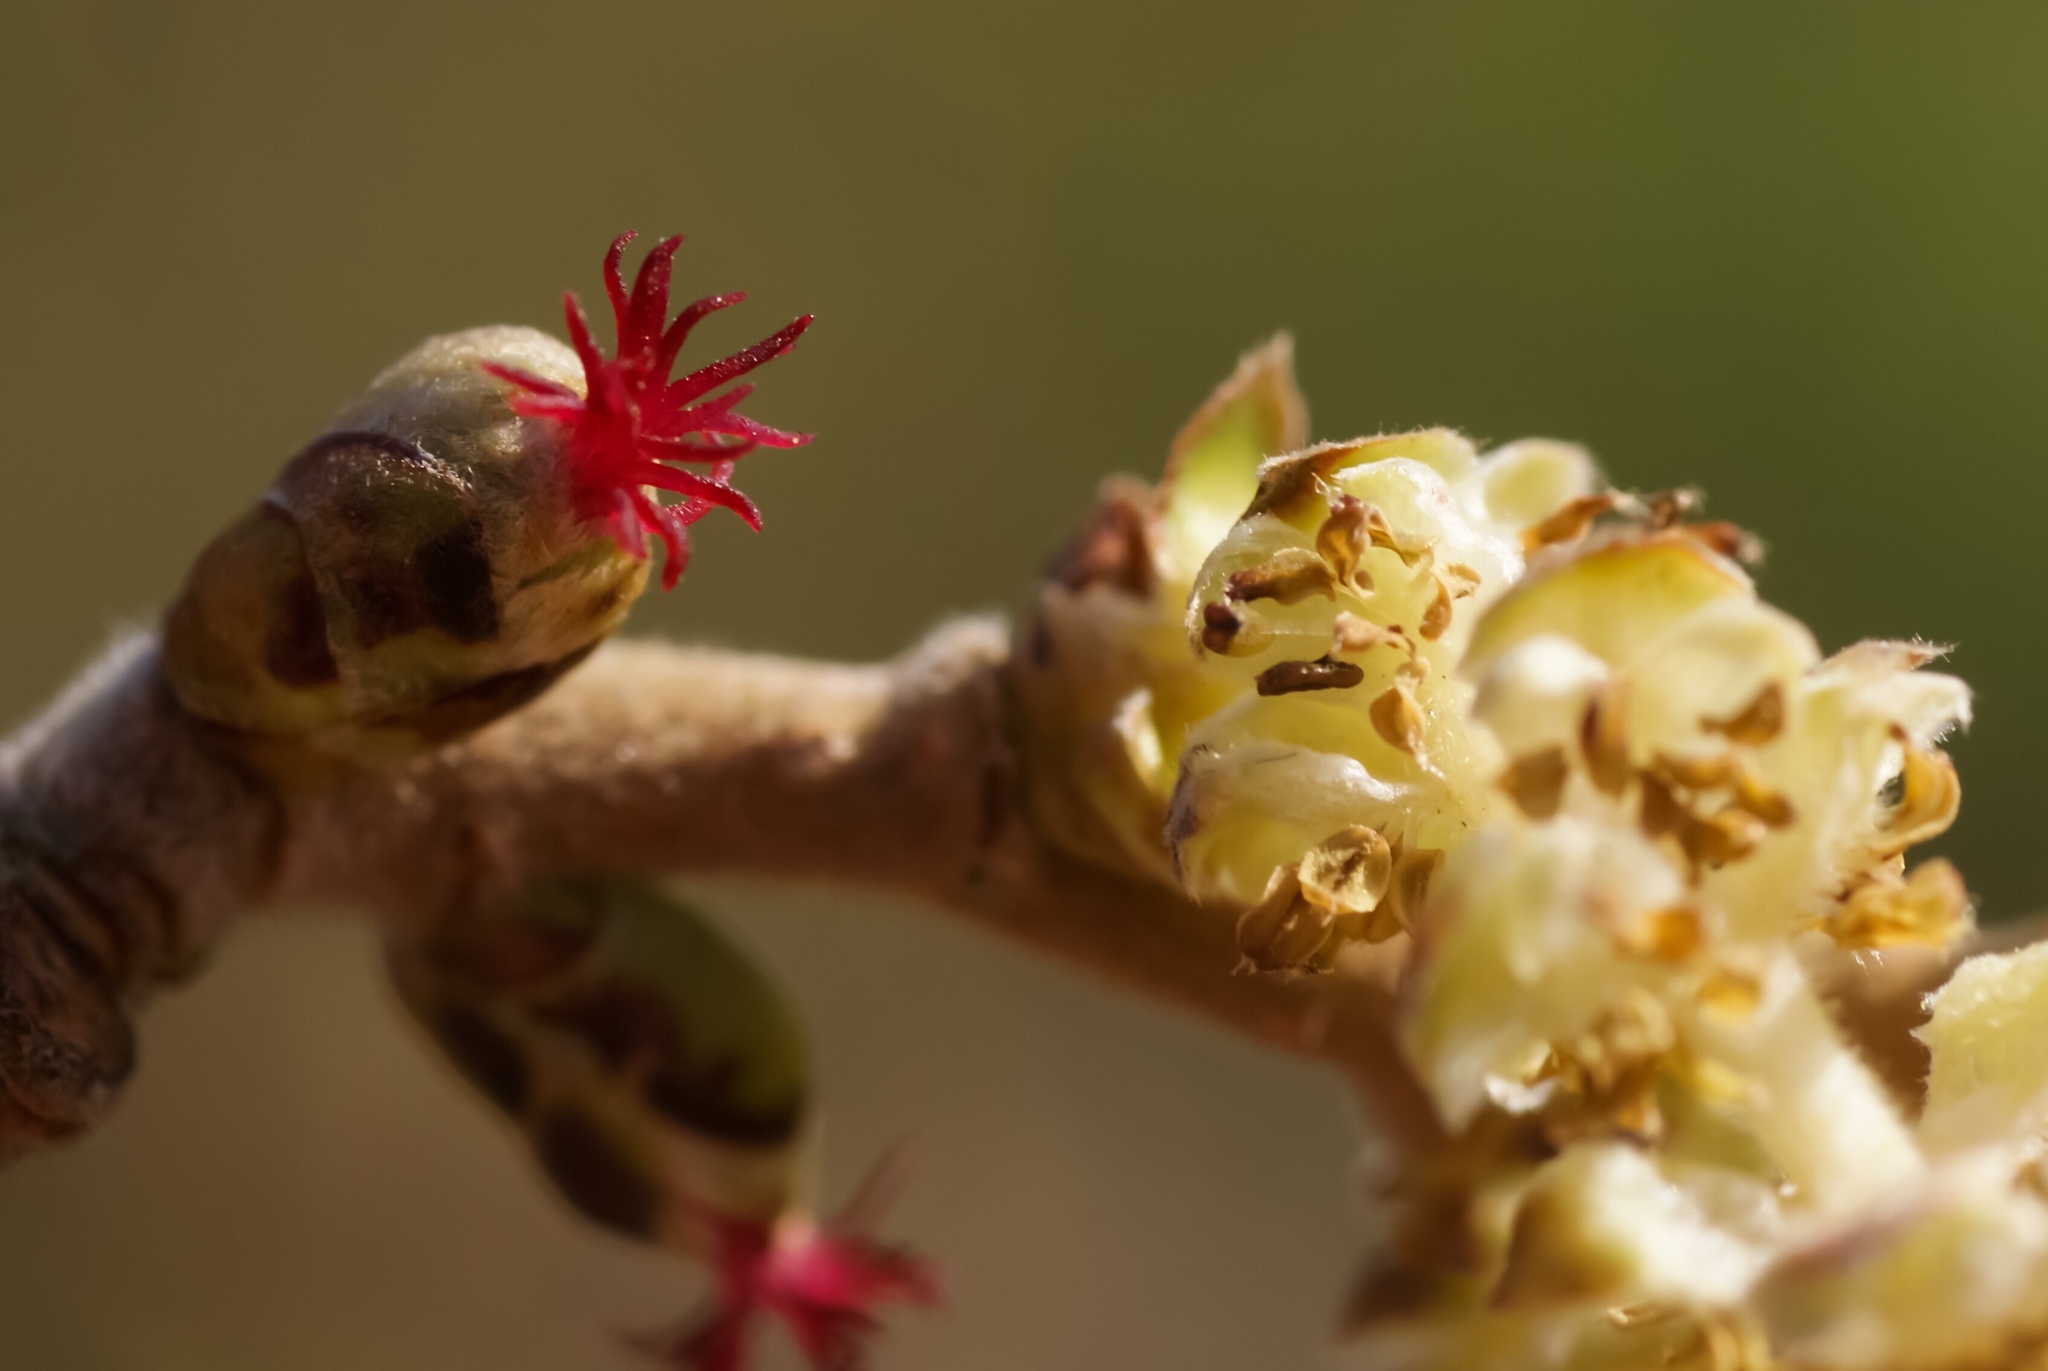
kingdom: Plantae
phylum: Tracheophyta
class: Magnoliopsida
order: Fagales
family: Betulaceae
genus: Corylus
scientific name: Corylus avellana
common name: European hazel
